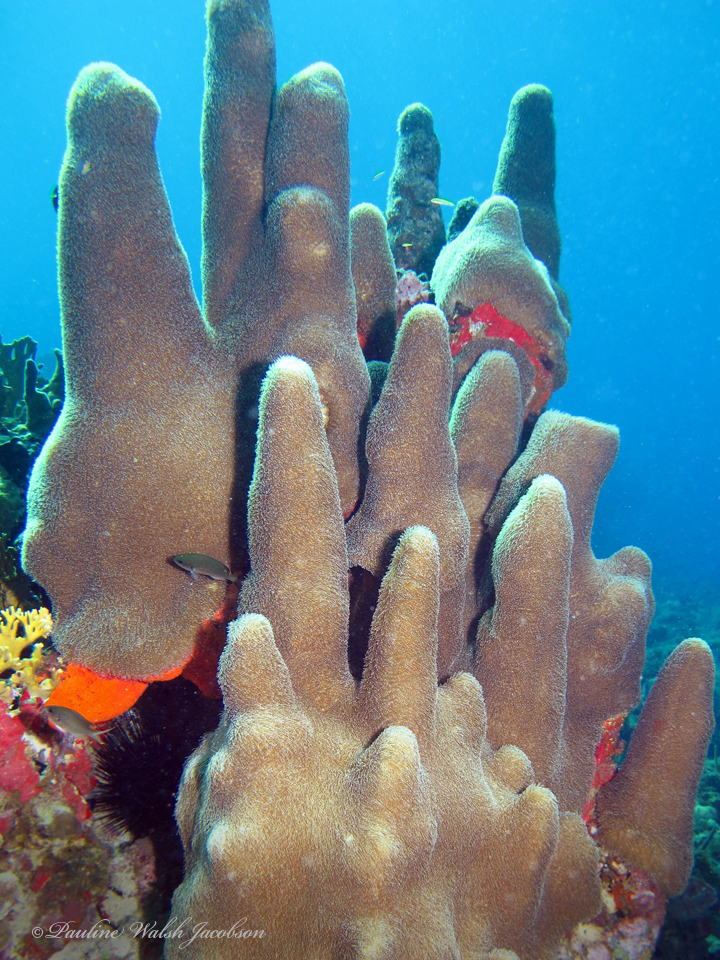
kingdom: Animalia
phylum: Cnidaria
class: Anthozoa
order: Scleractinia
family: Meandrinidae
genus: Dendrogyra
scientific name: Dendrogyra cylindrus
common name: Pillar coral
